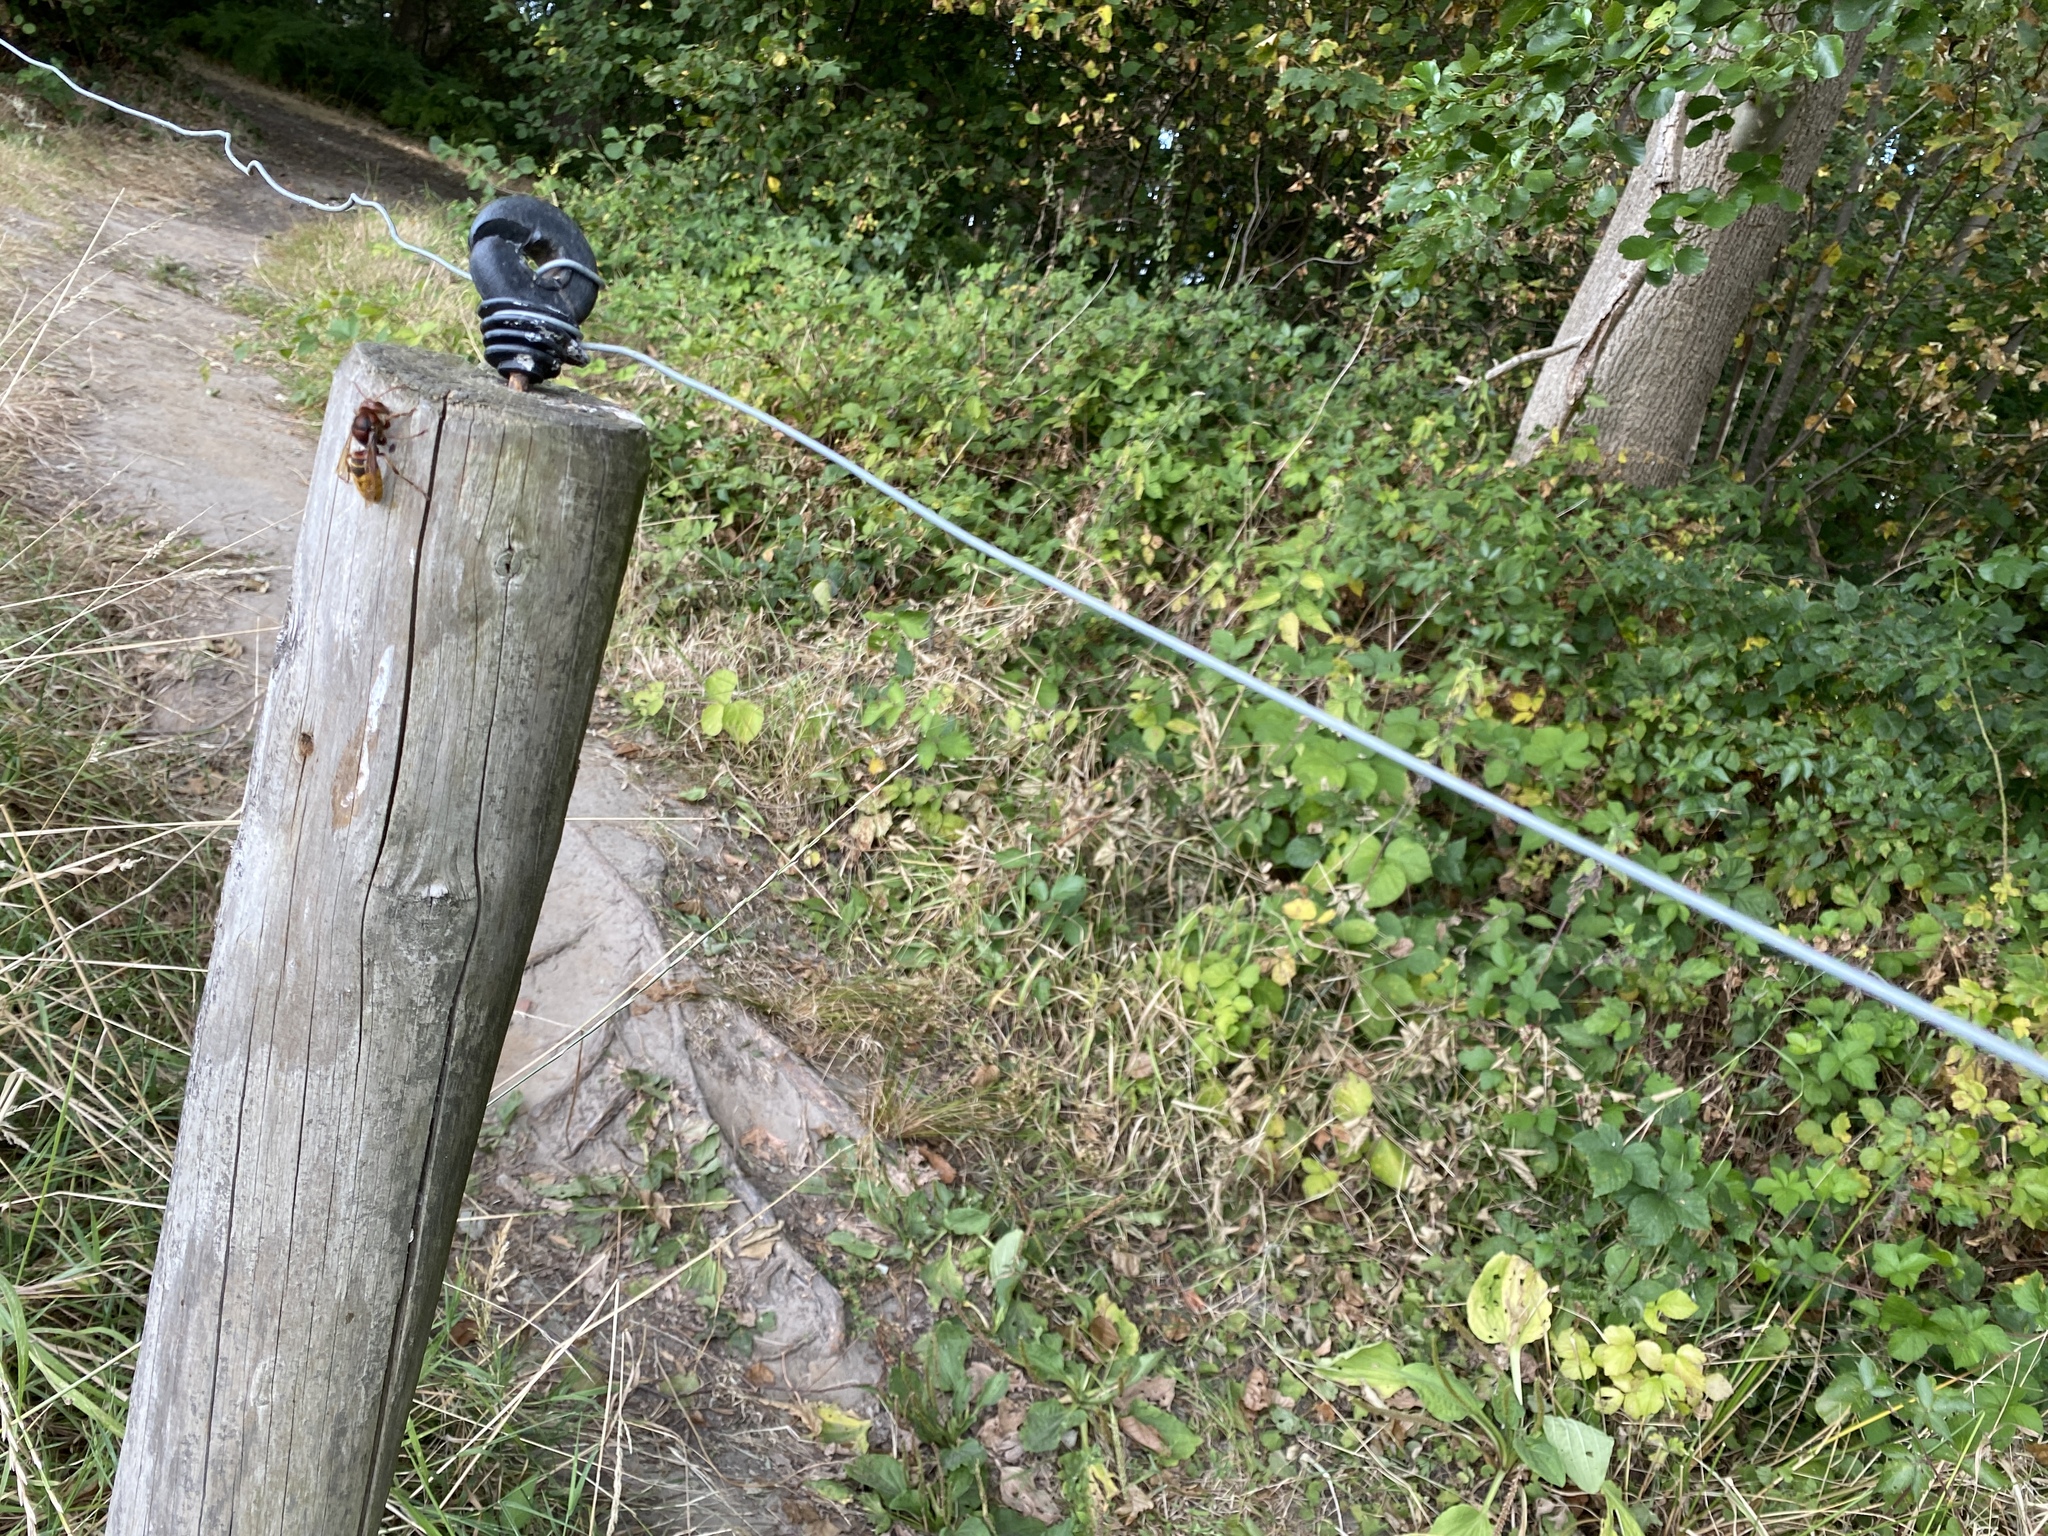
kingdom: Animalia
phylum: Arthropoda
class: Insecta
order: Hymenoptera
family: Vespidae
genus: Vespa
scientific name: Vespa crabro
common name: Hornet
